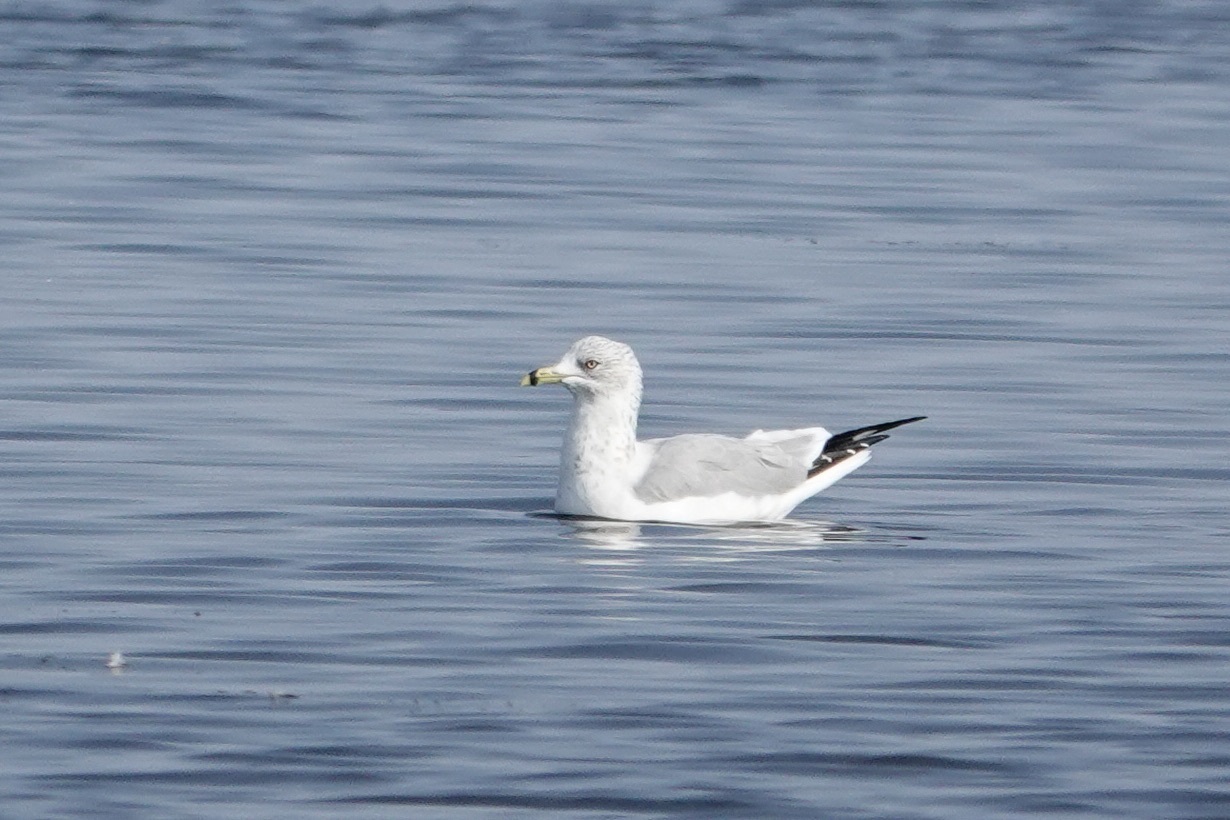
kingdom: Animalia
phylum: Chordata
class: Aves
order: Charadriiformes
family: Laridae
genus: Larus
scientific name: Larus delawarensis
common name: Ring-billed gull
